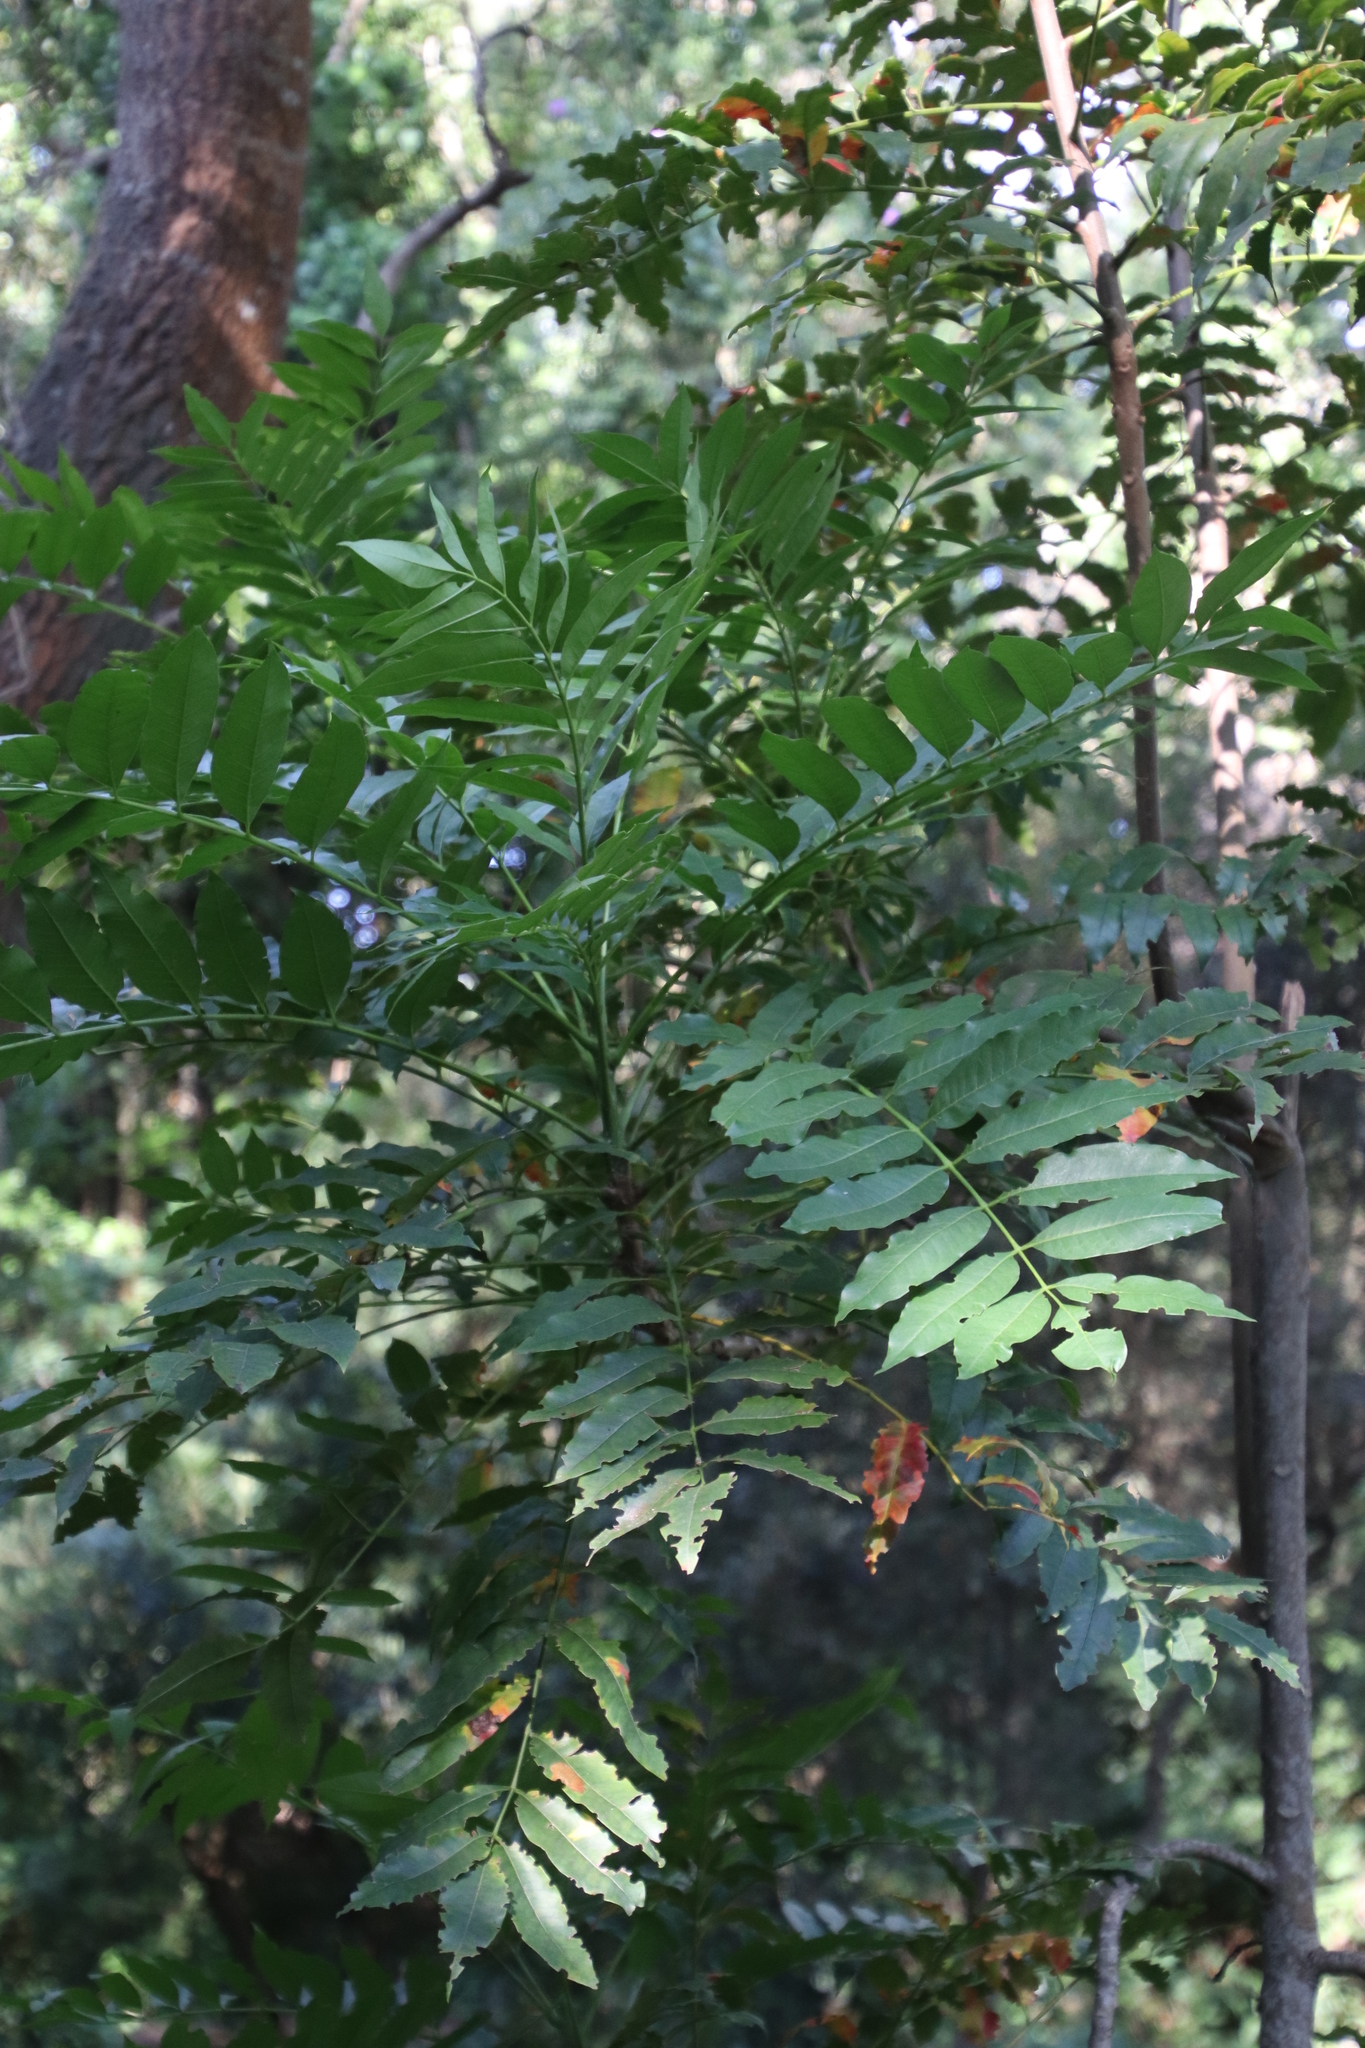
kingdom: Plantae
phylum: Tracheophyta
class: Magnoliopsida
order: Sapindales
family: Meliaceae
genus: Ekebergia
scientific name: Ekebergia capensis
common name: Cape-ash
